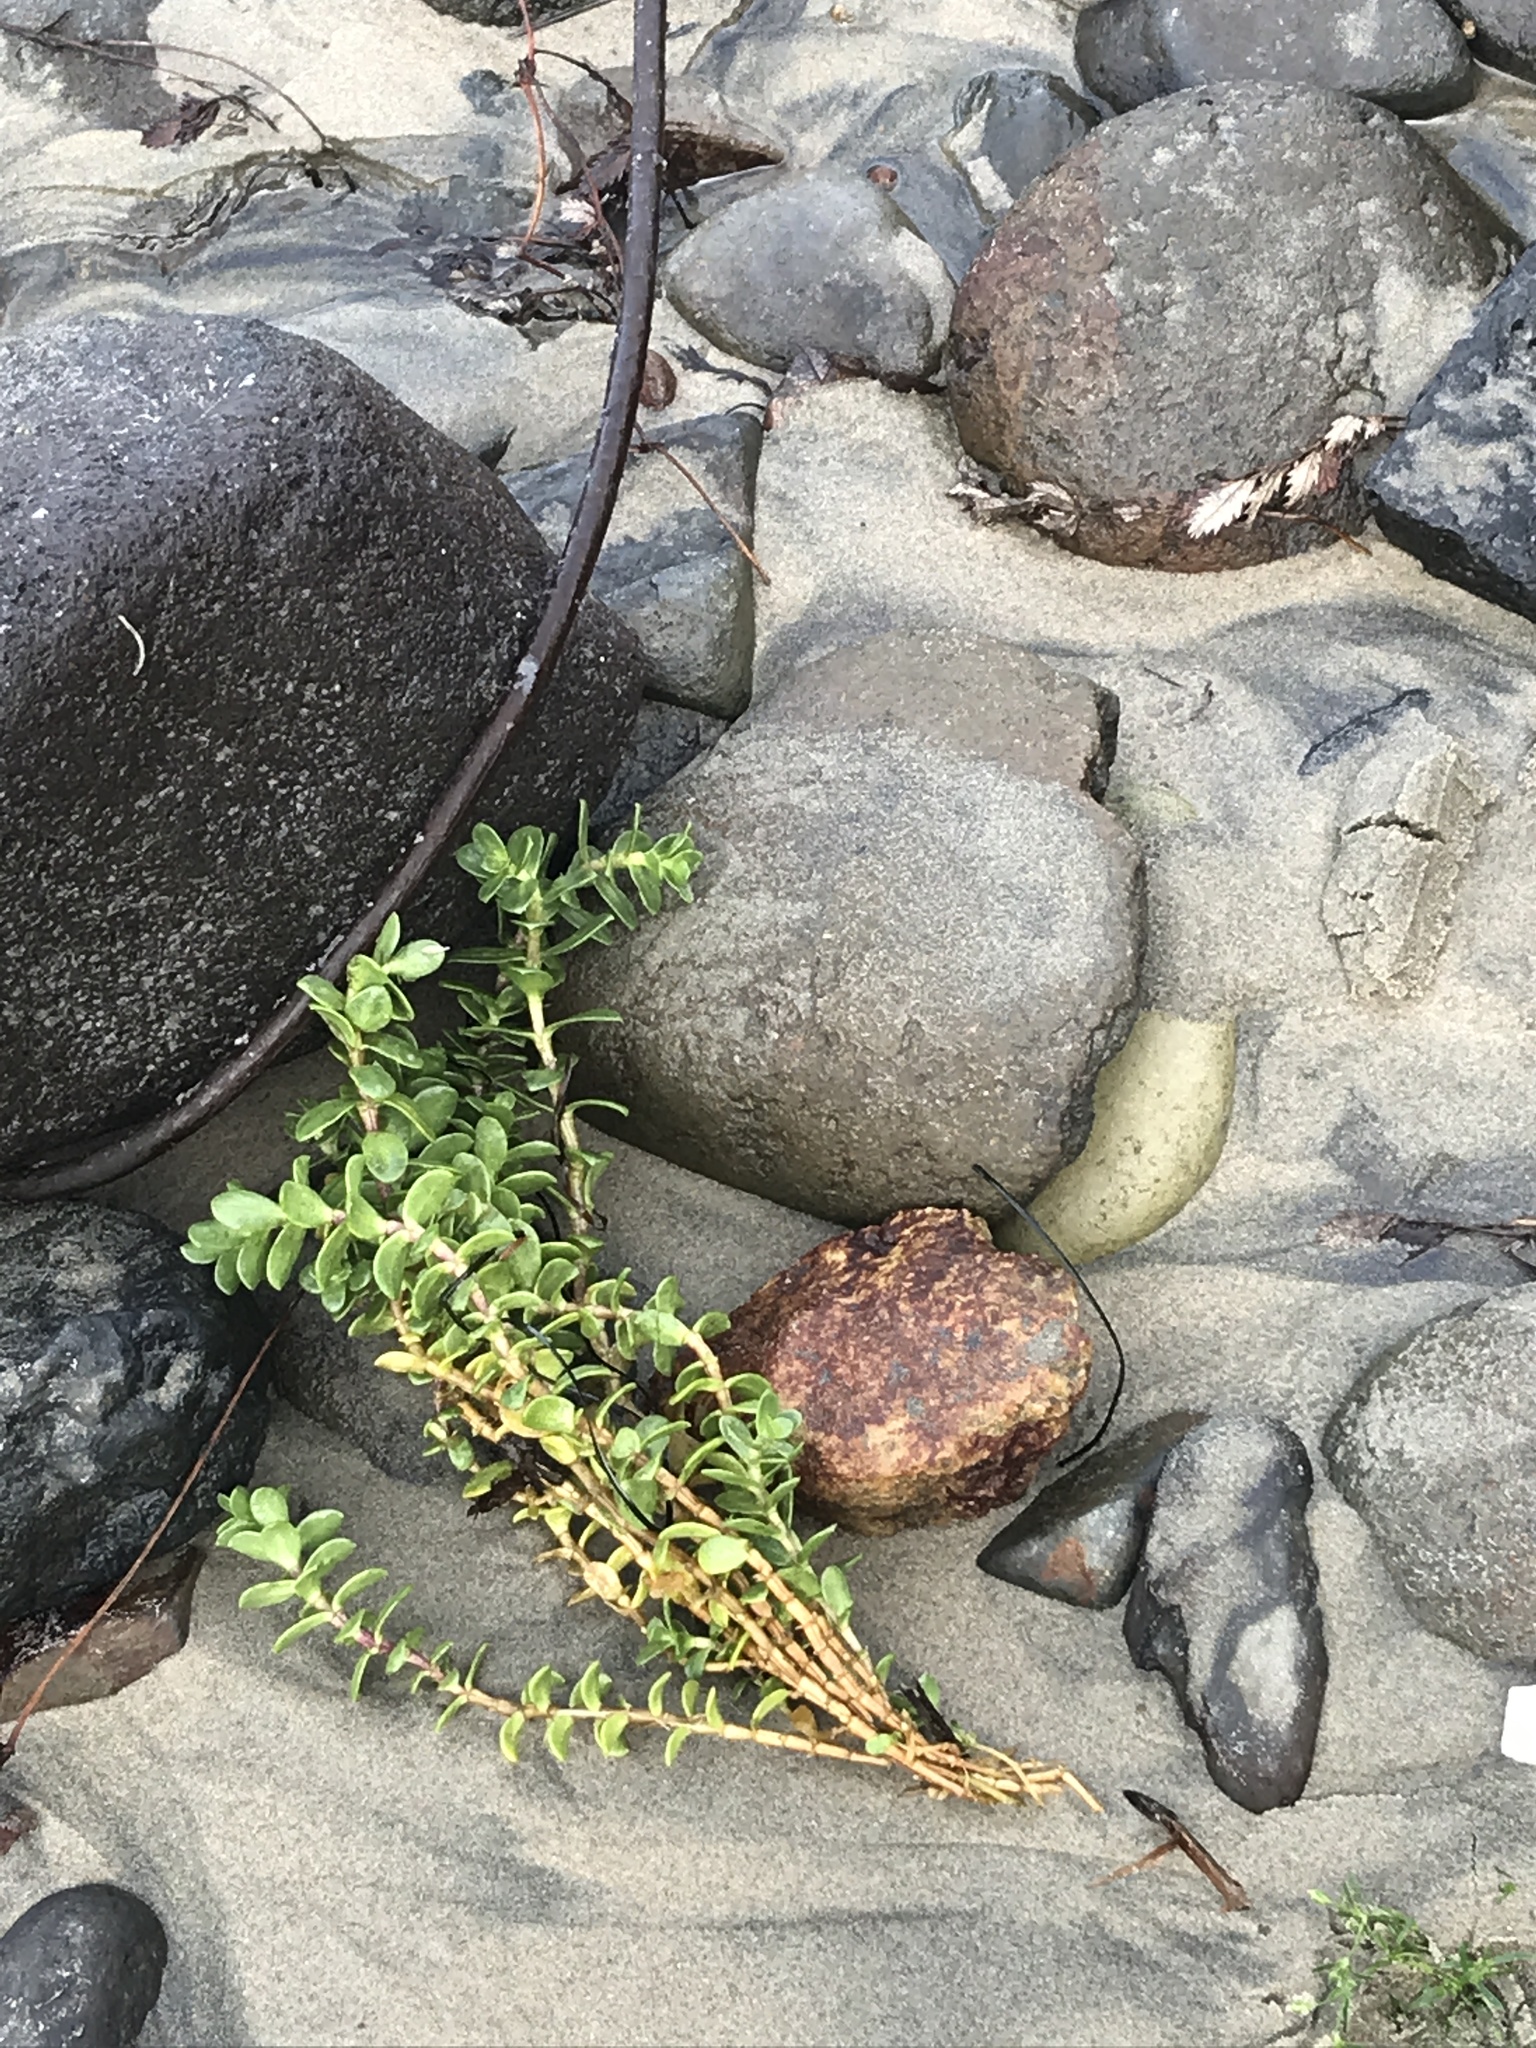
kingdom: Plantae
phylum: Tracheophyta
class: Magnoliopsida
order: Caryophyllales
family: Caryophyllaceae
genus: Honckenya
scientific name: Honckenya peploides
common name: Sea sandwort
